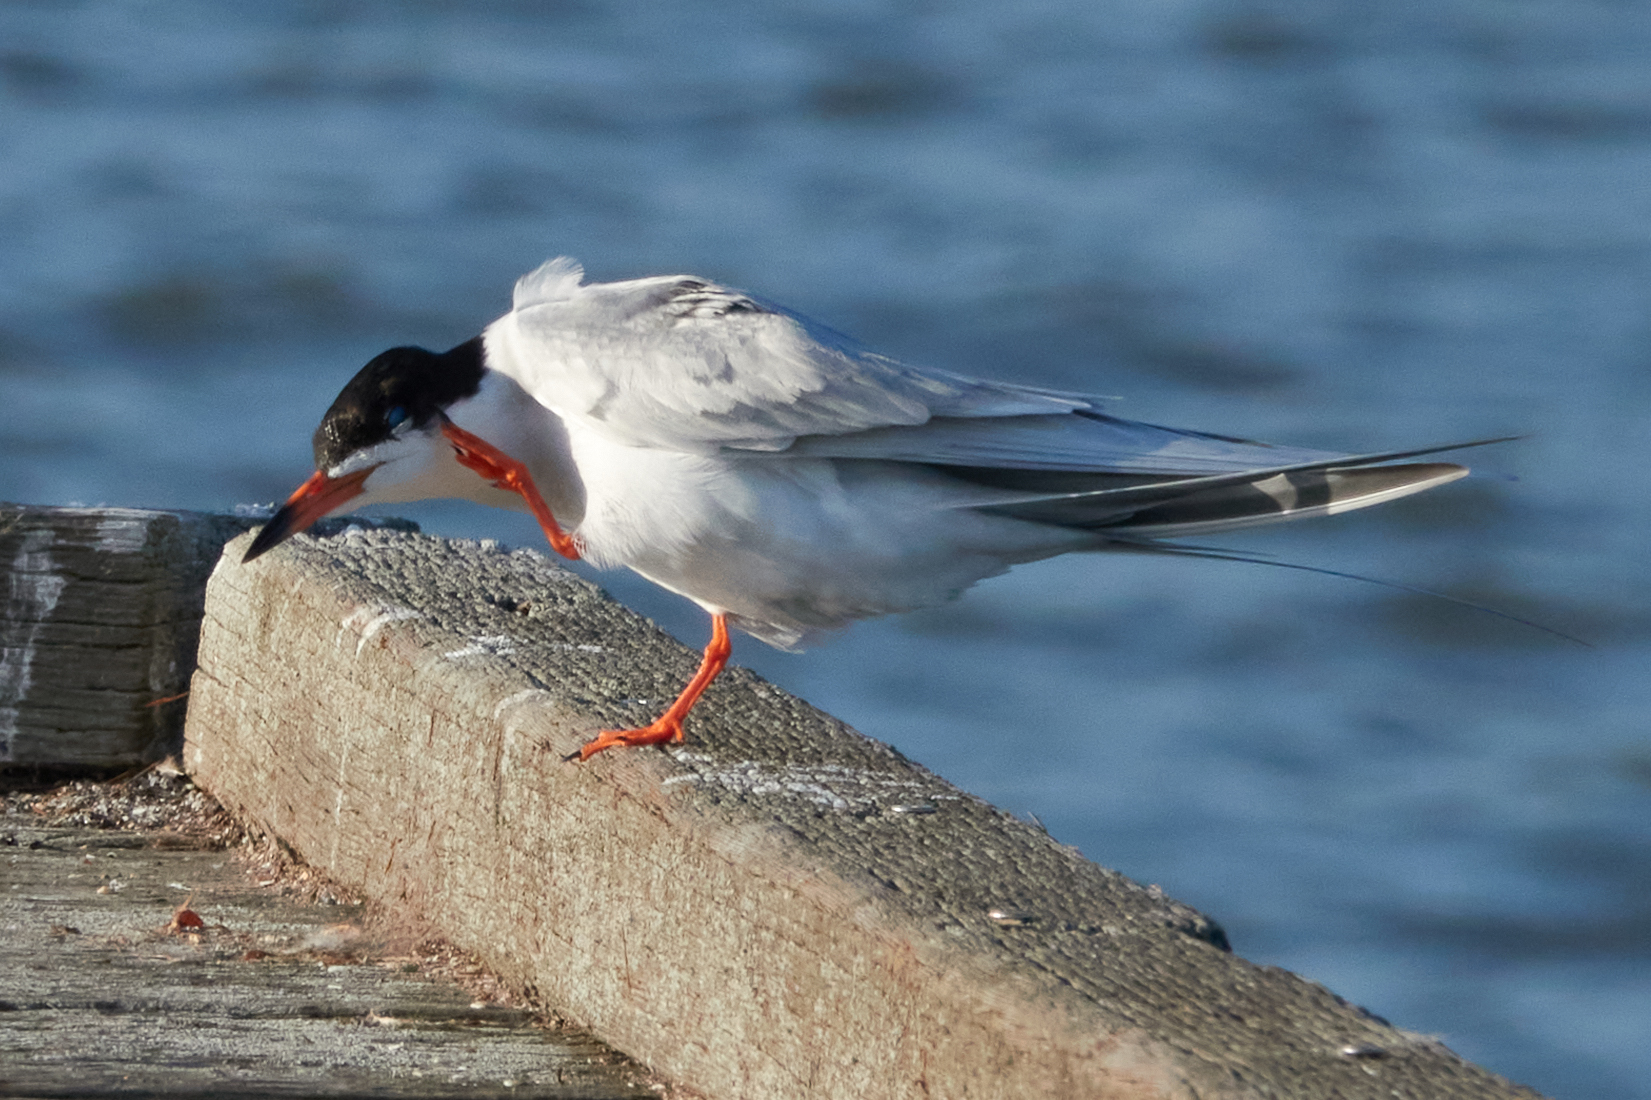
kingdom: Animalia
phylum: Chordata
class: Aves
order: Charadriiformes
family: Laridae
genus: Sterna
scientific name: Sterna forsteri
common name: Forster's tern
